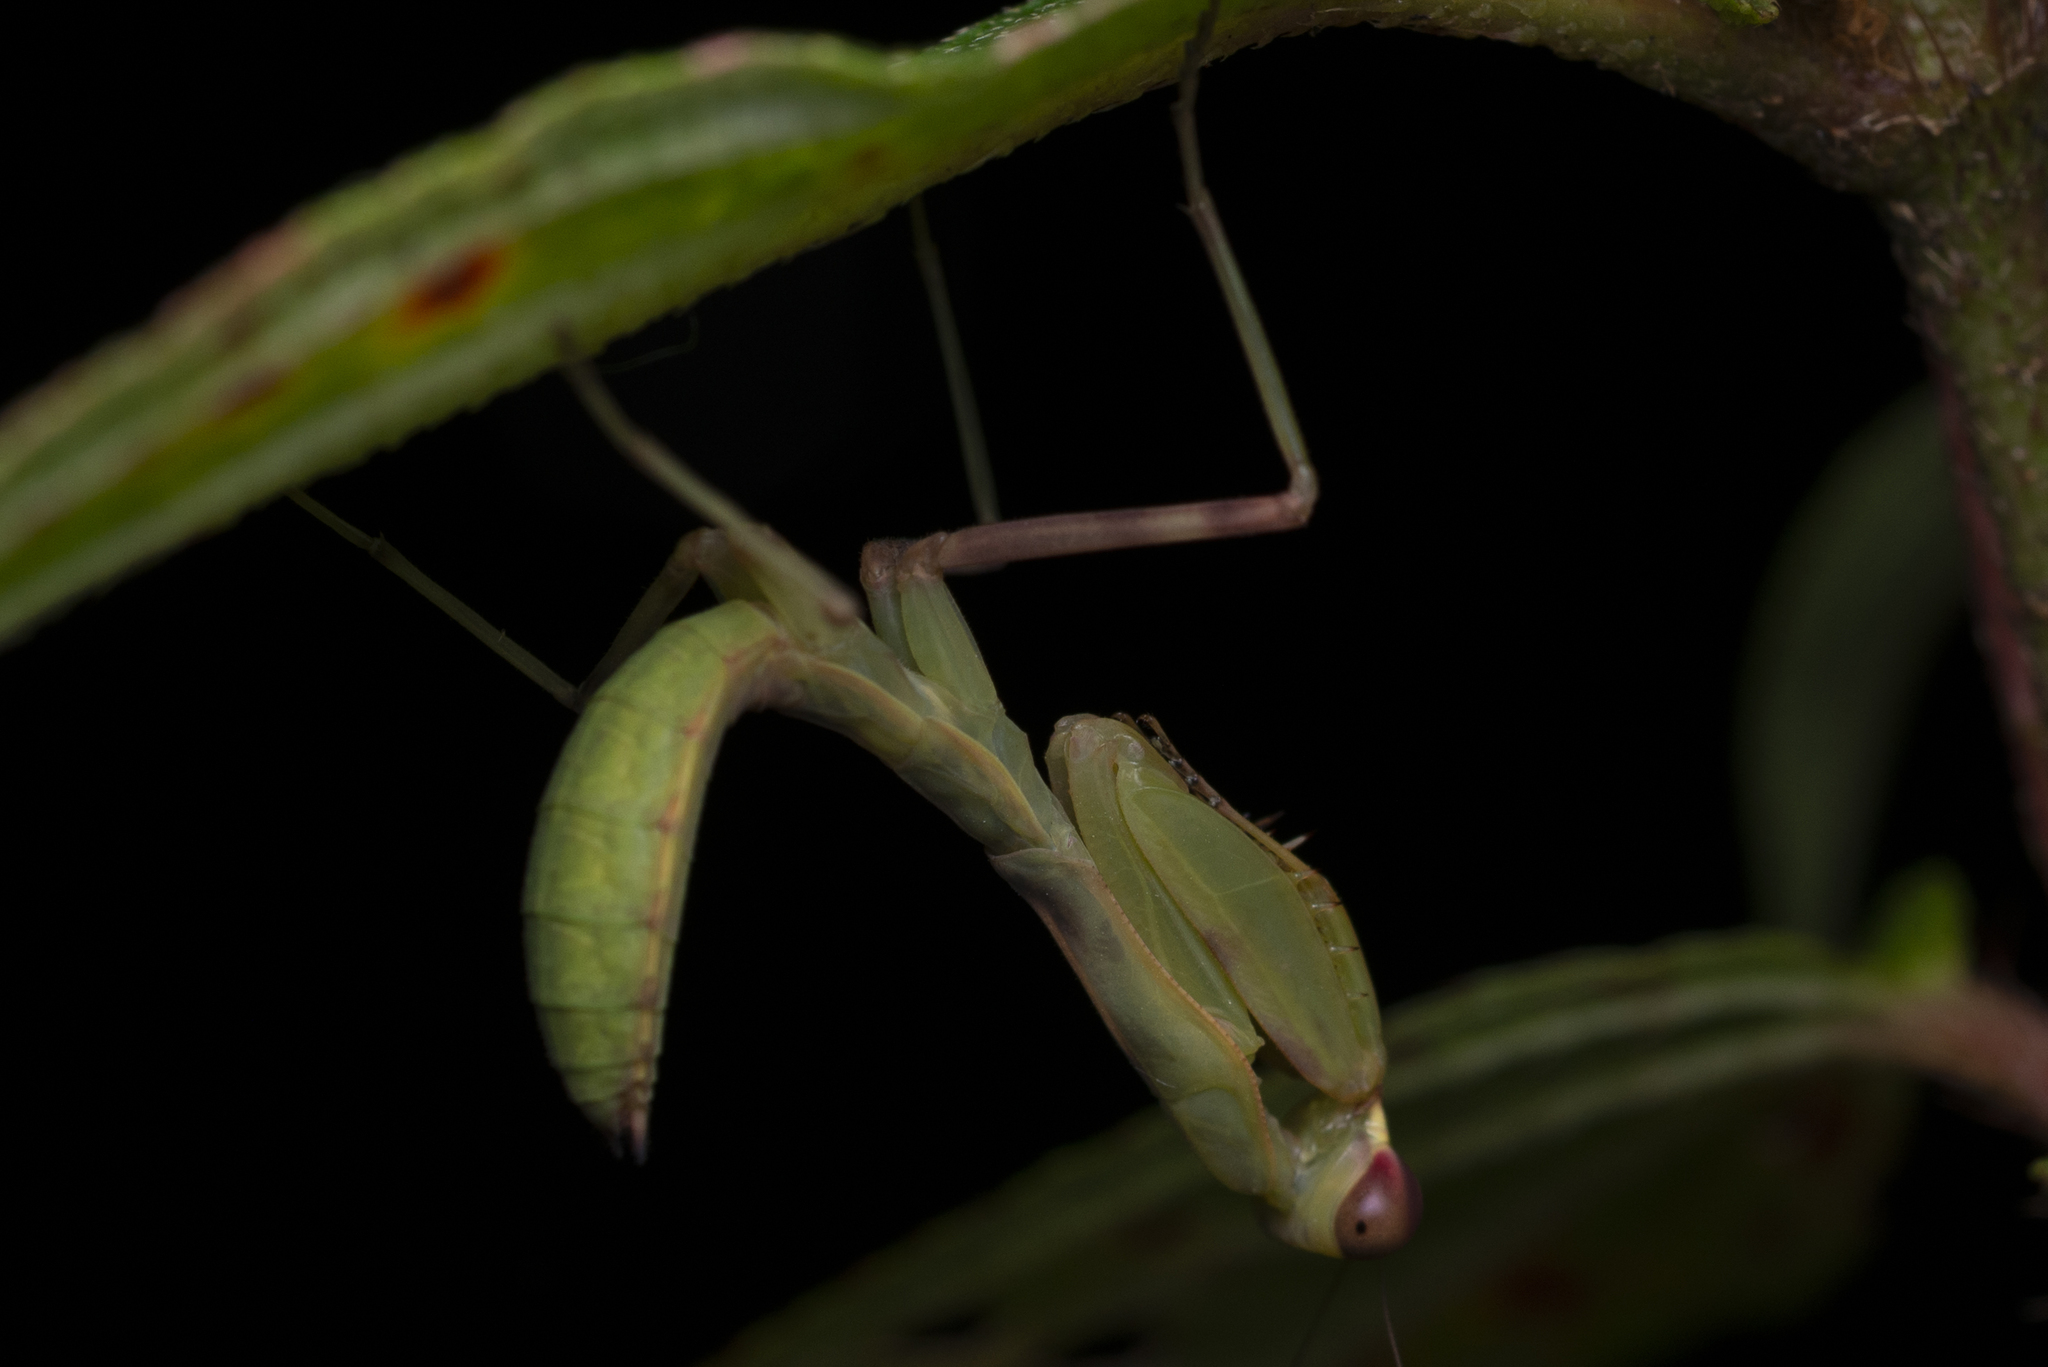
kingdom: Animalia
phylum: Arthropoda
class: Insecta
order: Mantodea
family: Mantidae
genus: Hierodula
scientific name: Hierodula patellifera
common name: Asian mantis
